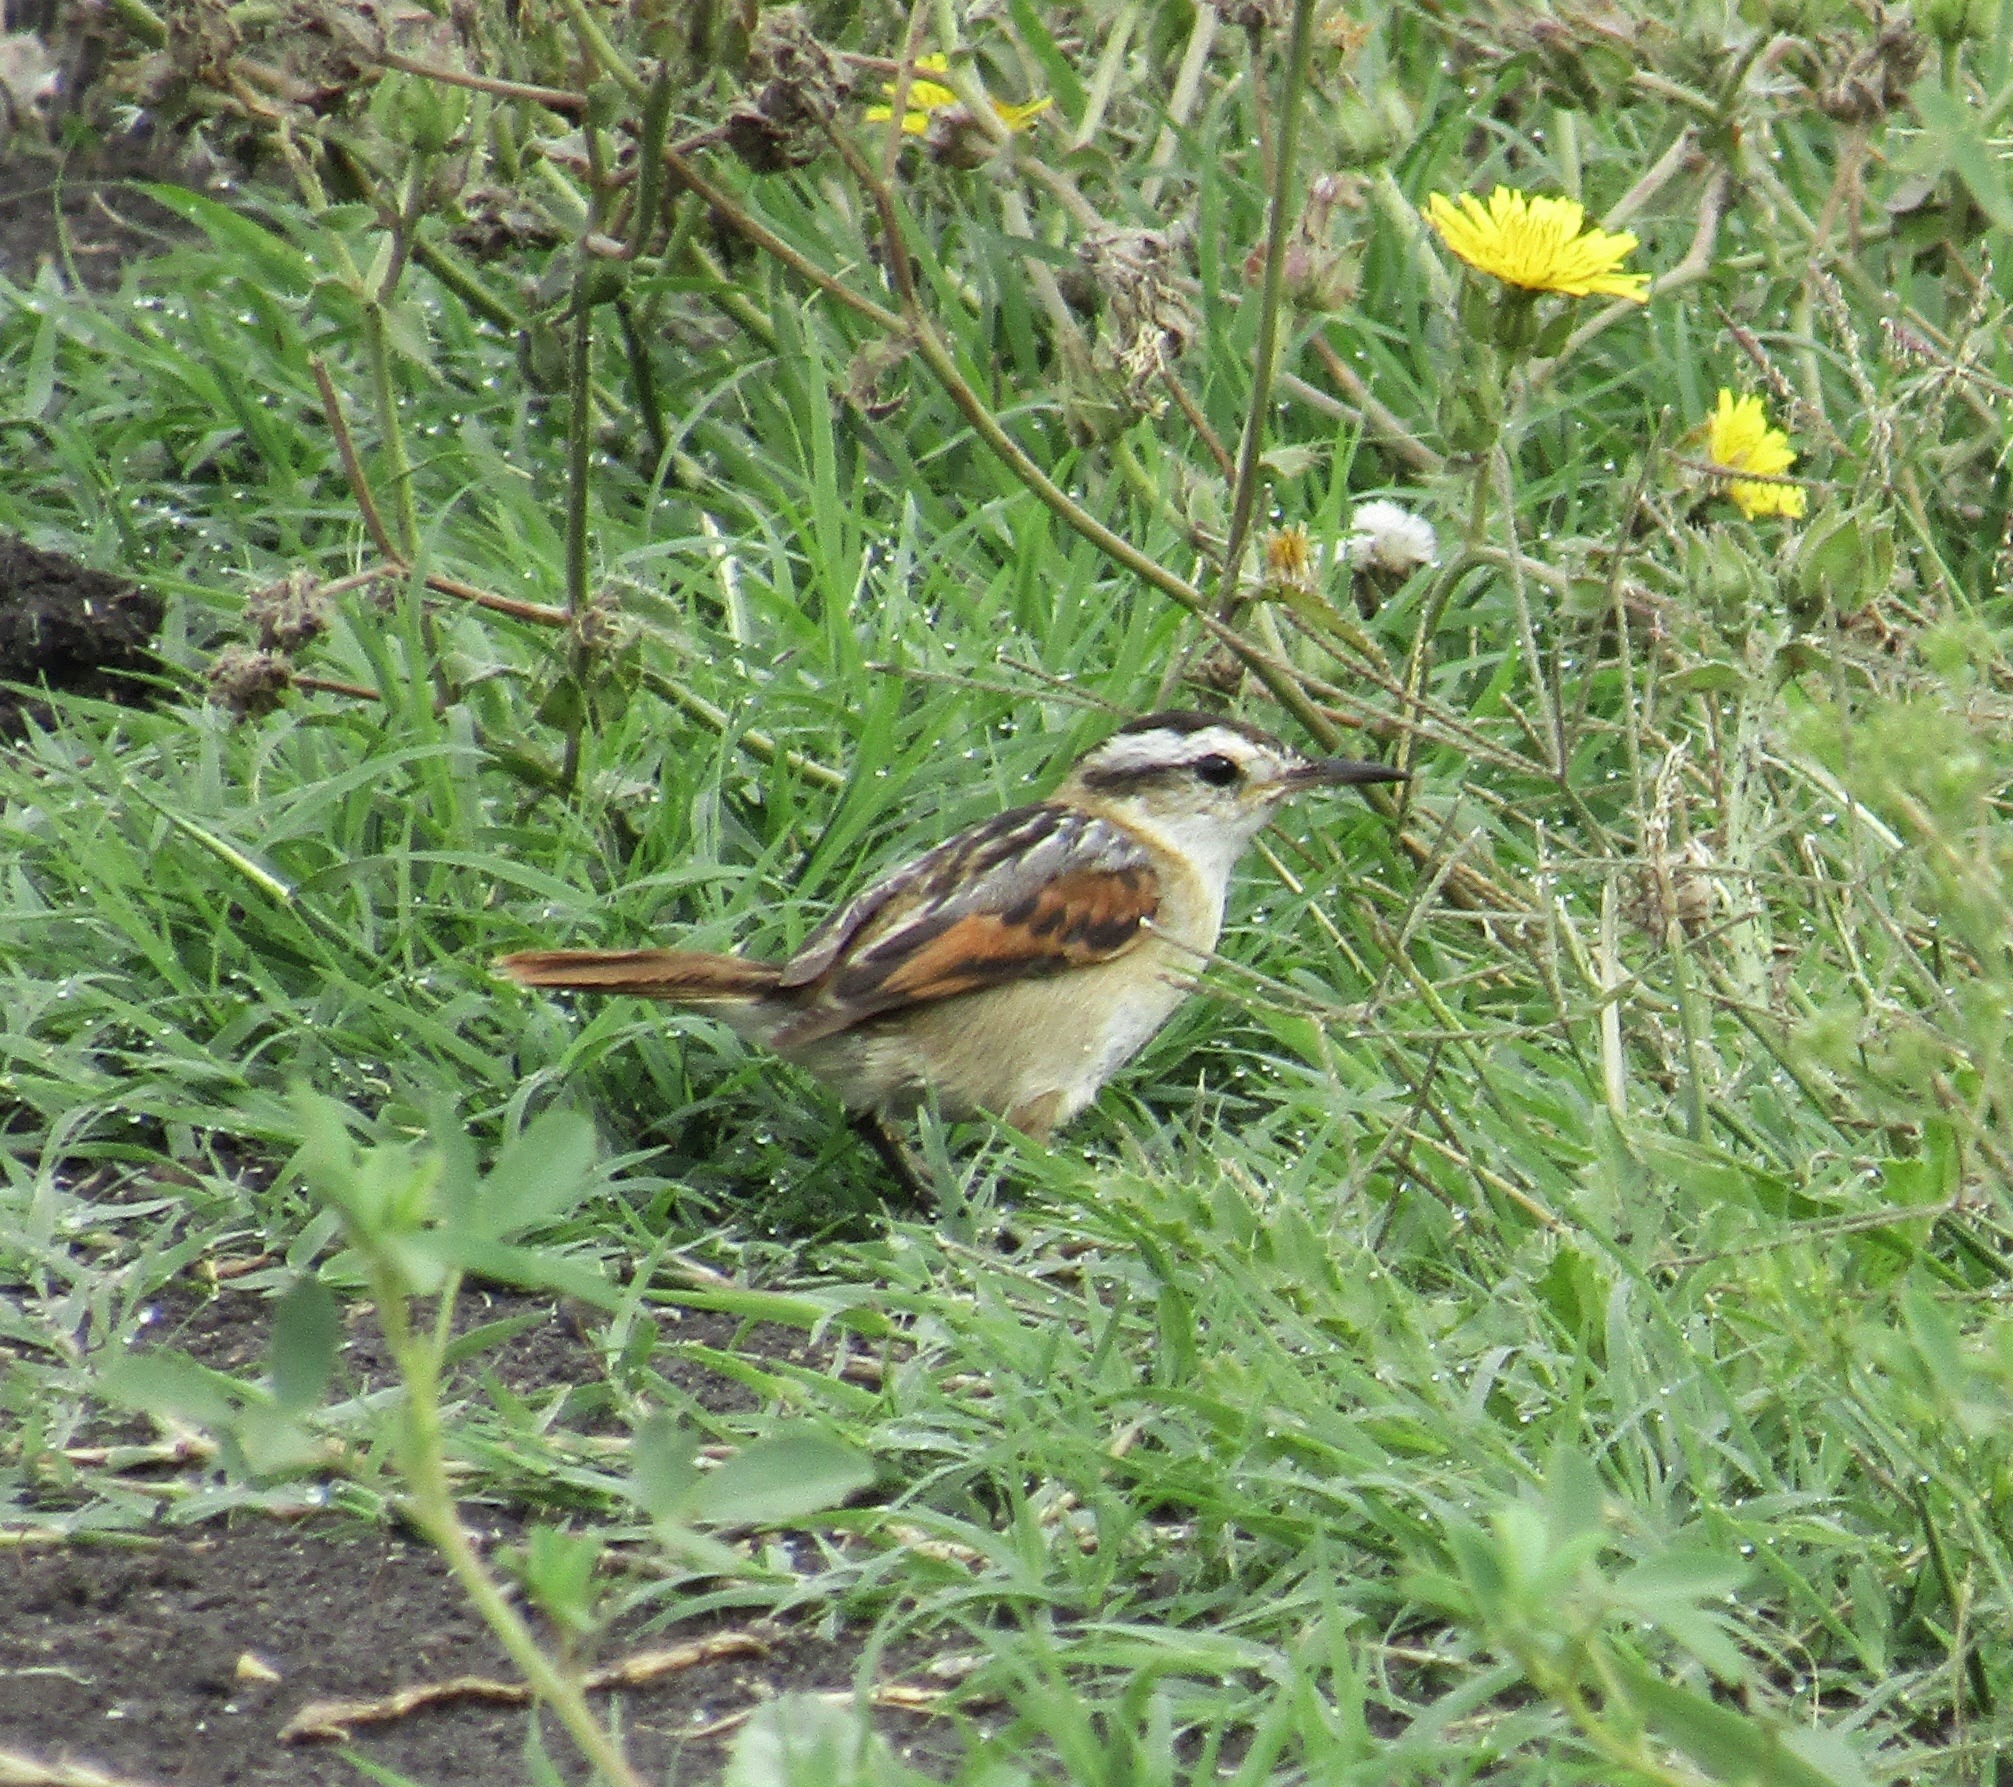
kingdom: Animalia
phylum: Chordata
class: Aves
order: Passeriformes
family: Furnariidae
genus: Phleocryptes
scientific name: Phleocryptes melanops
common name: Wren-like rushbird
